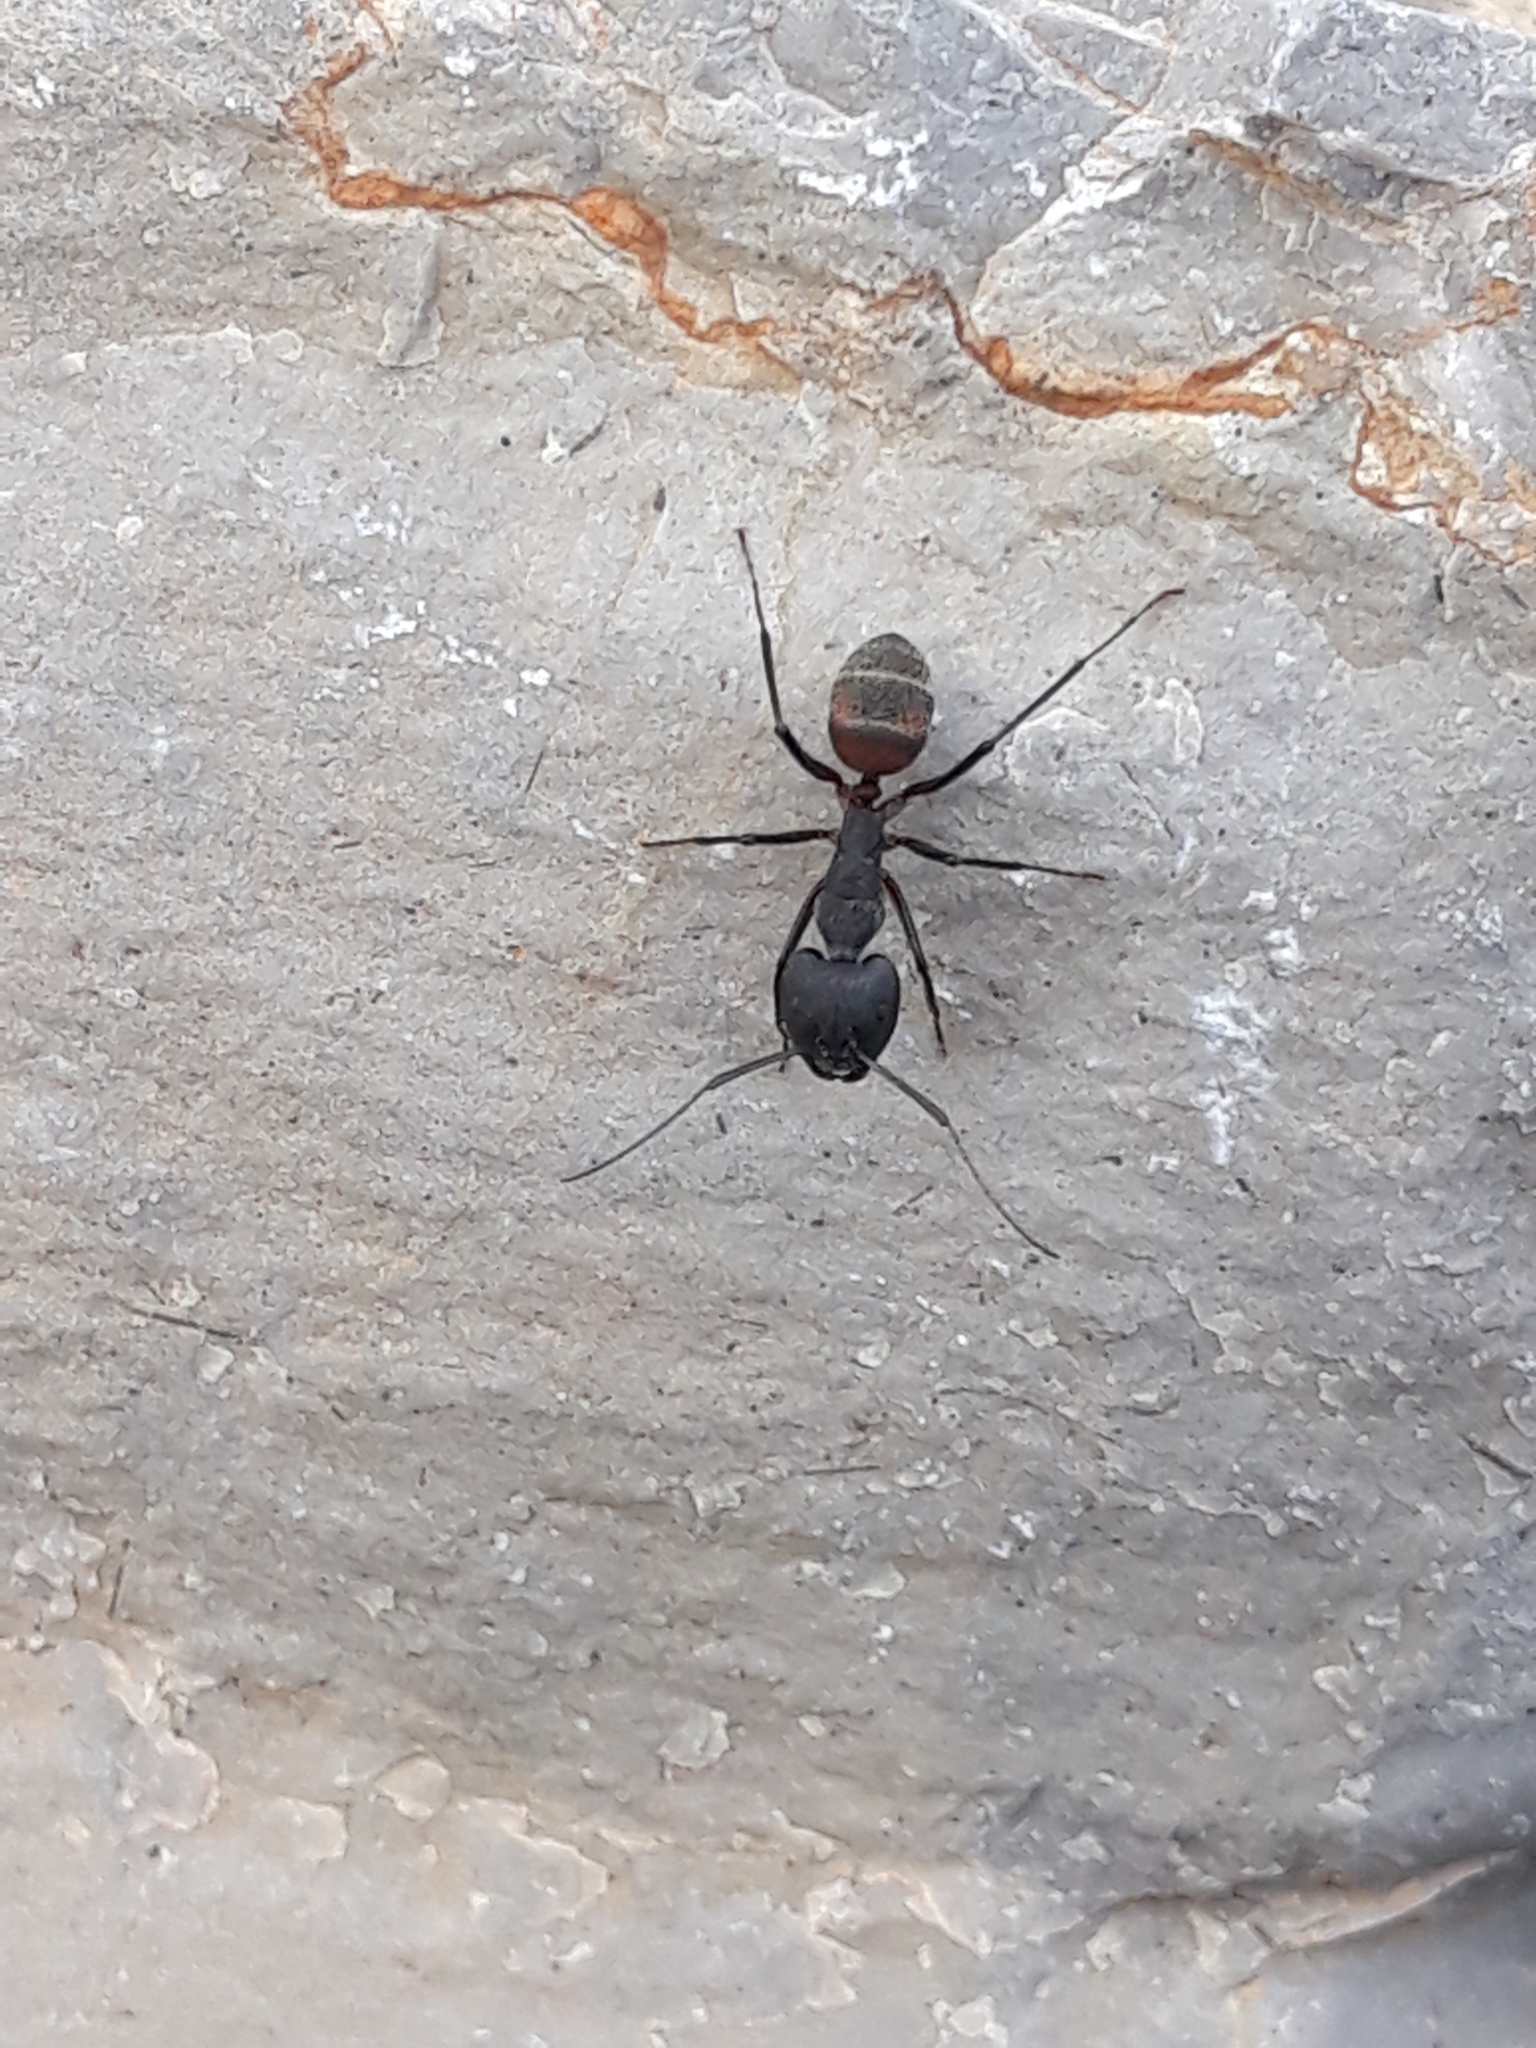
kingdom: Animalia
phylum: Arthropoda
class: Insecta
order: Hymenoptera
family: Formicidae
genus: Camponotus
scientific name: Camponotus cruentatus
